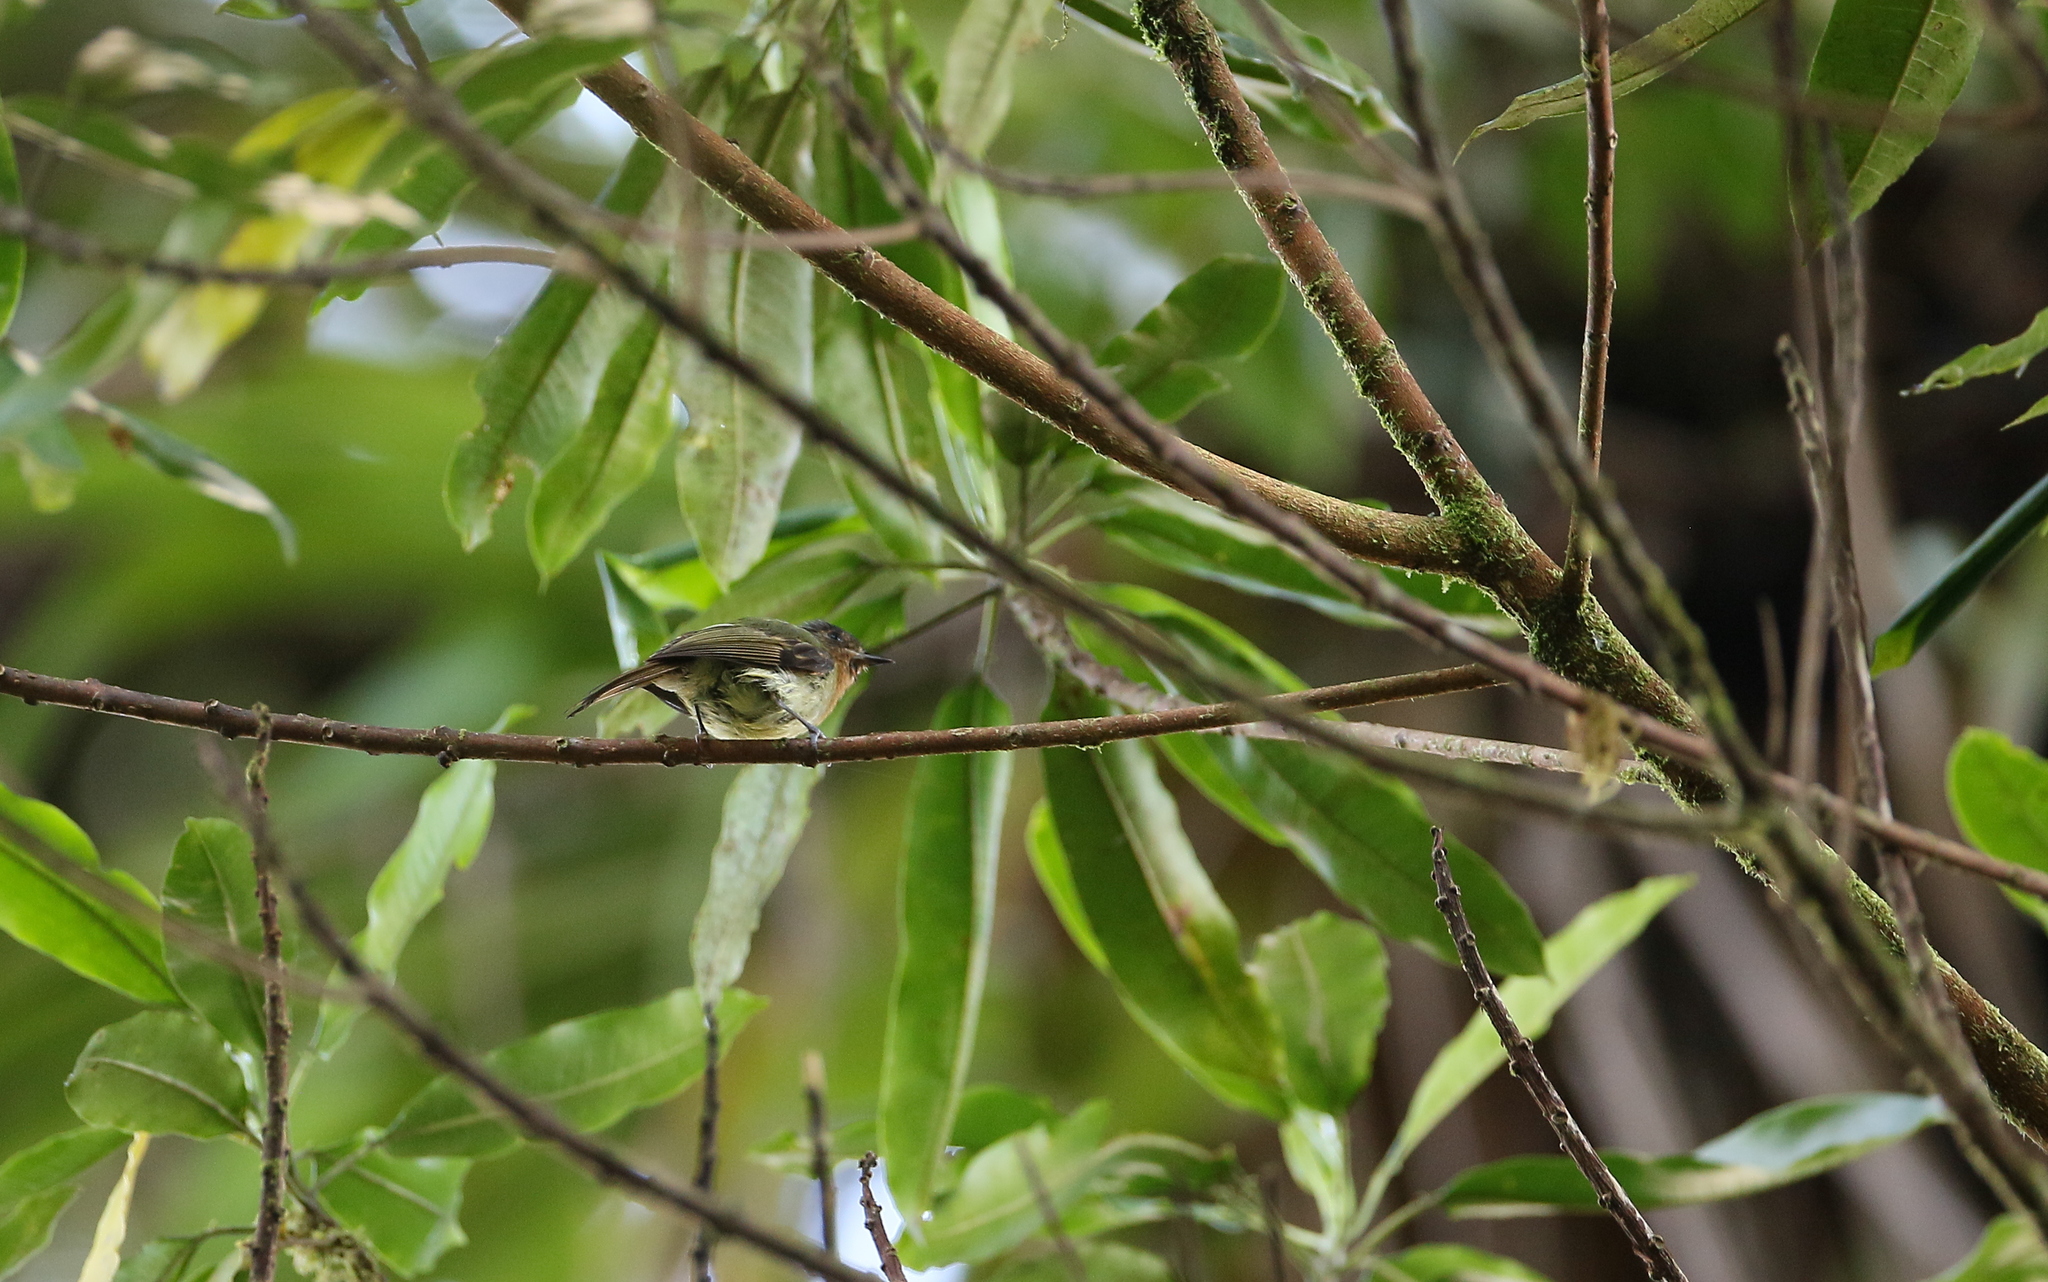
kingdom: Animalia
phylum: Chordata
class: Aves
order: Passeriformes
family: Tyrannidae
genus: Leptopogon
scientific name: Leptopogon rufipectus
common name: Rufous-breasted flycatcher
